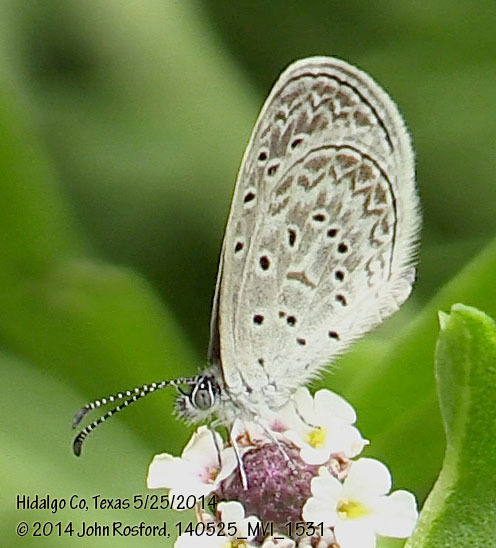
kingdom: Animalia
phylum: Arthropoda
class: Insecta
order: Lepidoptera
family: Lycaenidae
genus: Lycaena
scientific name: Lycaena cyna
